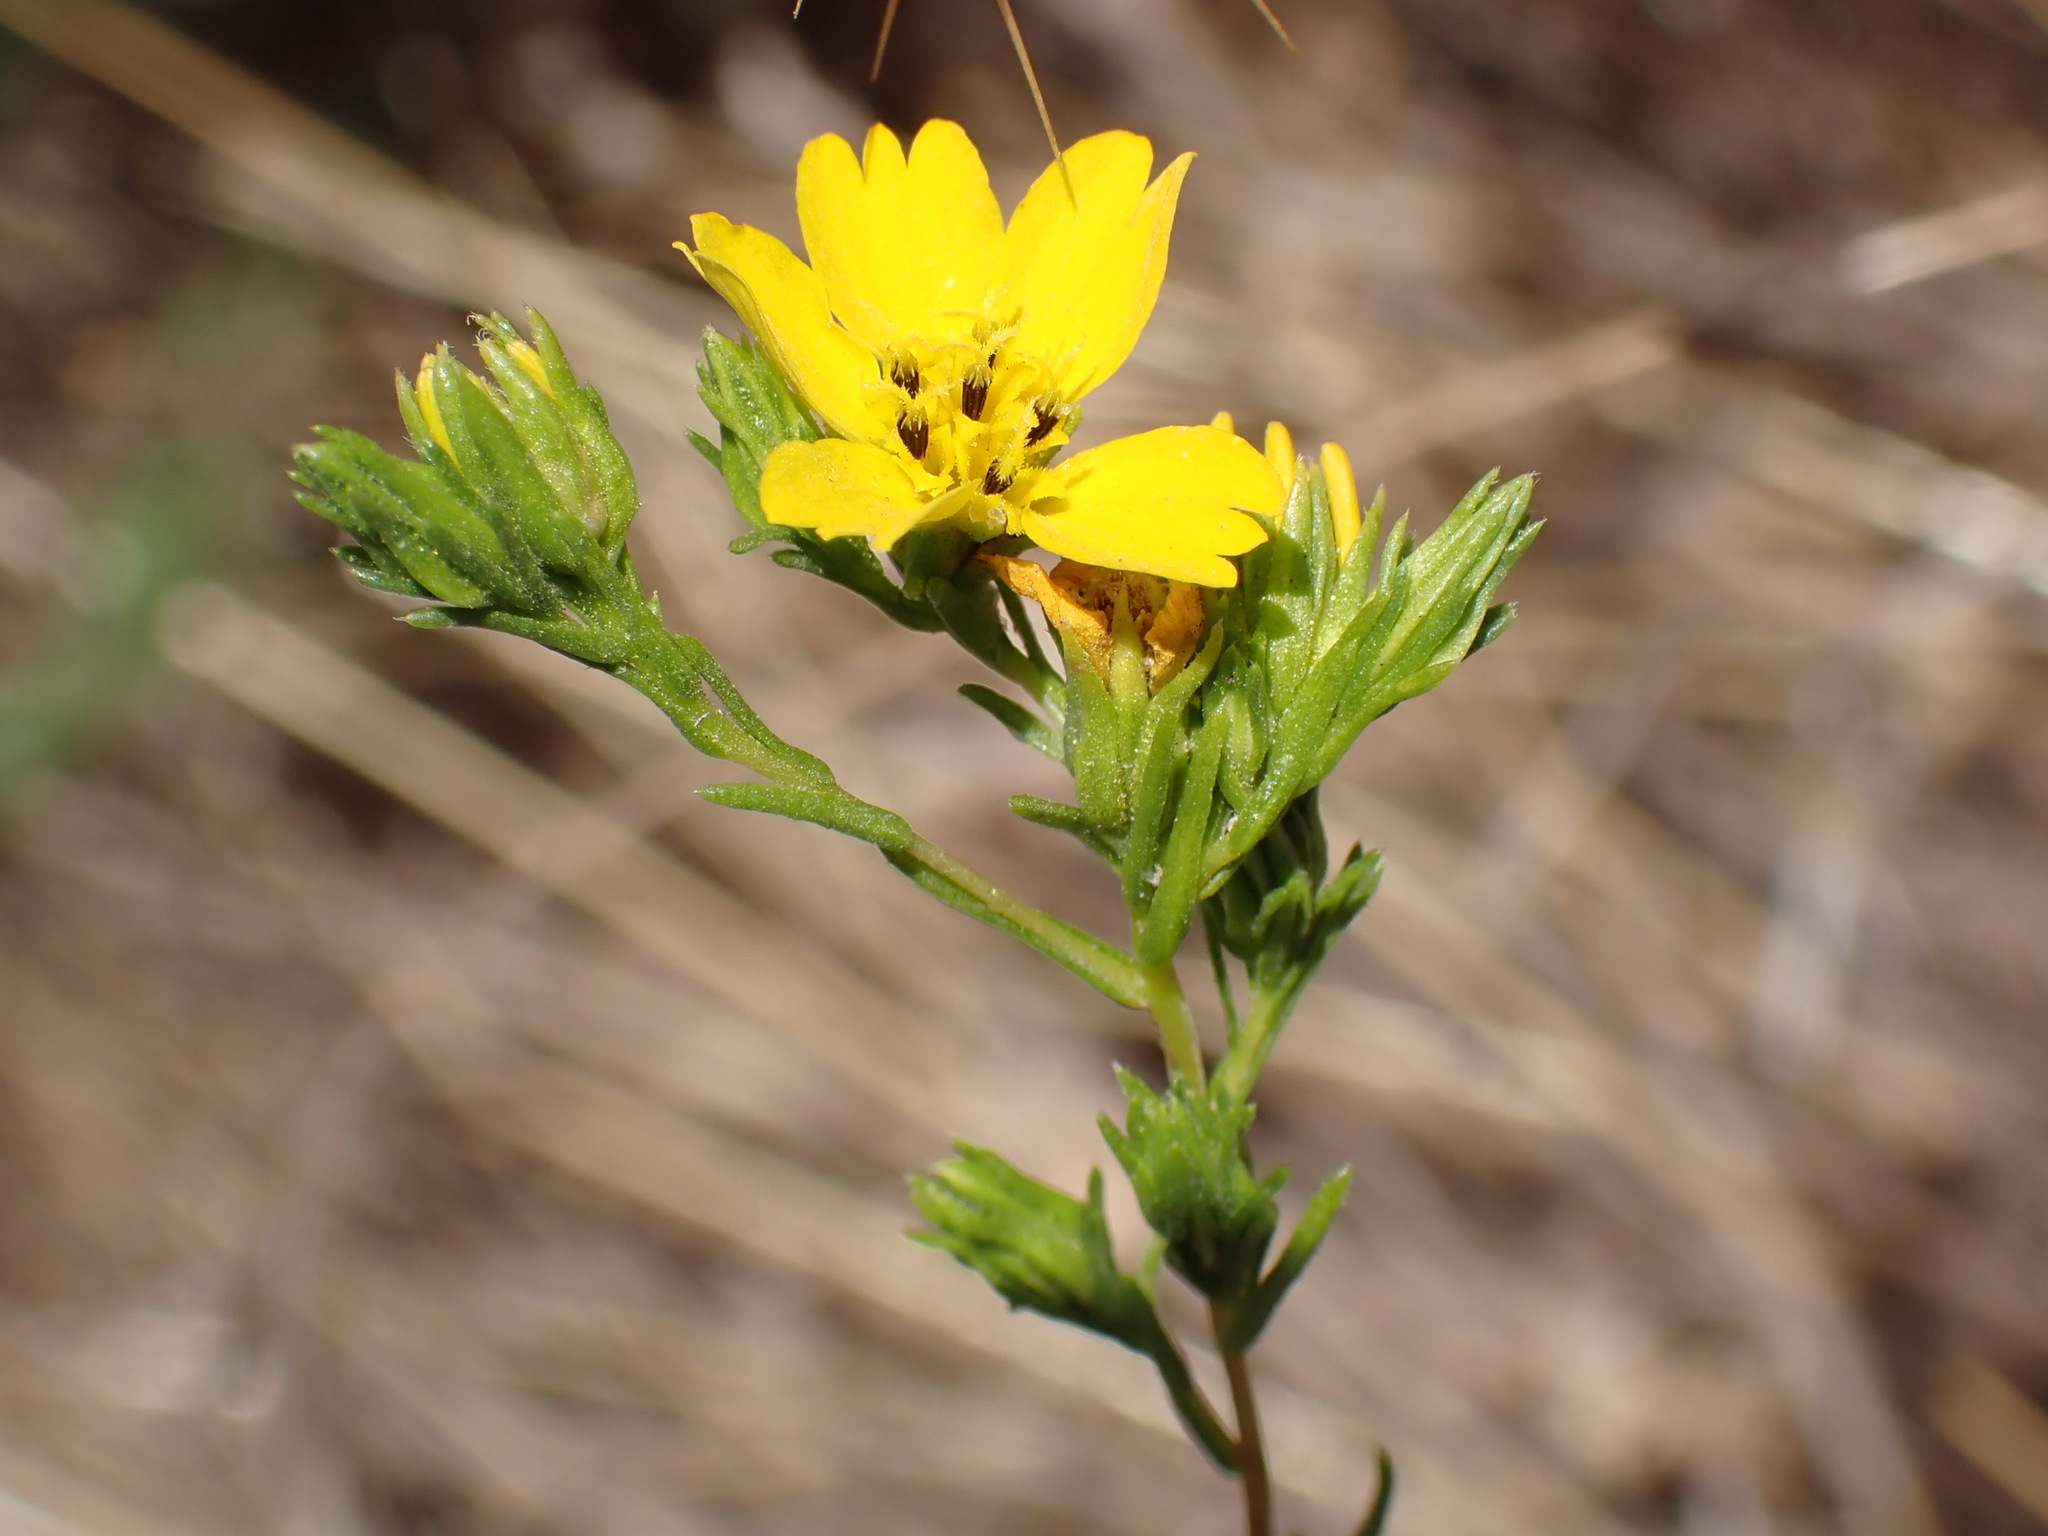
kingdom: Plantae
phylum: Tracheophyta
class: Magnoliopsida
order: Asterales
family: Asteraceae
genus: Deinandra
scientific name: Deinandra fasciculata
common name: Clustered tarweed
